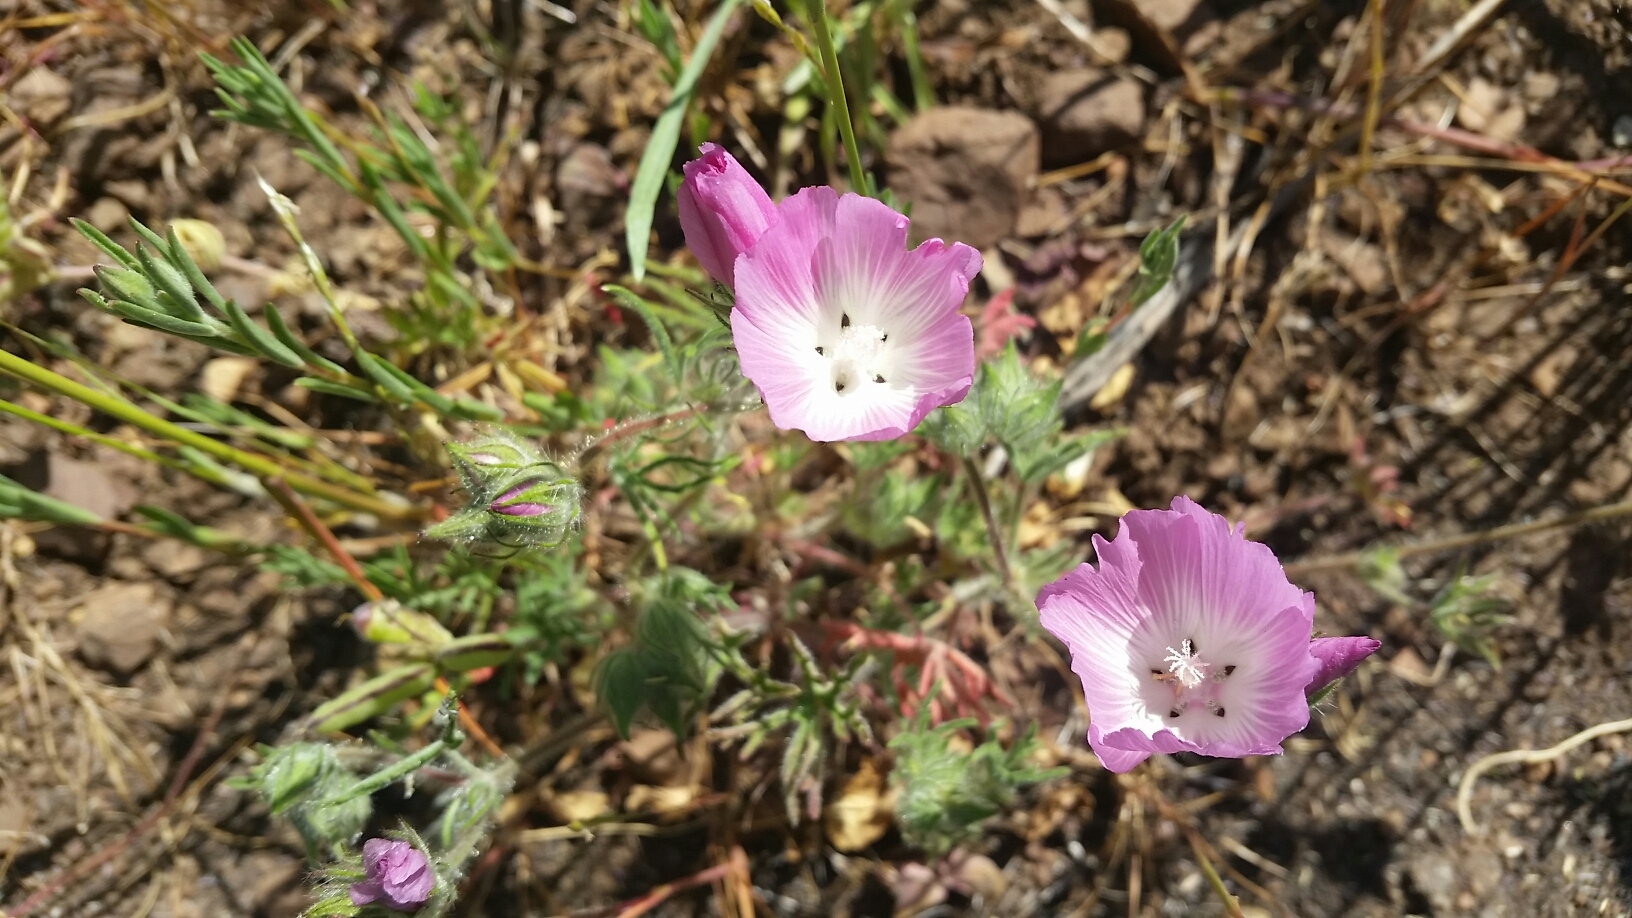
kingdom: Plantae
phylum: Tracheophyta
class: Magnoliopsida
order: Malvales
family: Malvaceae
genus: Sidalcea
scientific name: Sidalcea diploscypha
